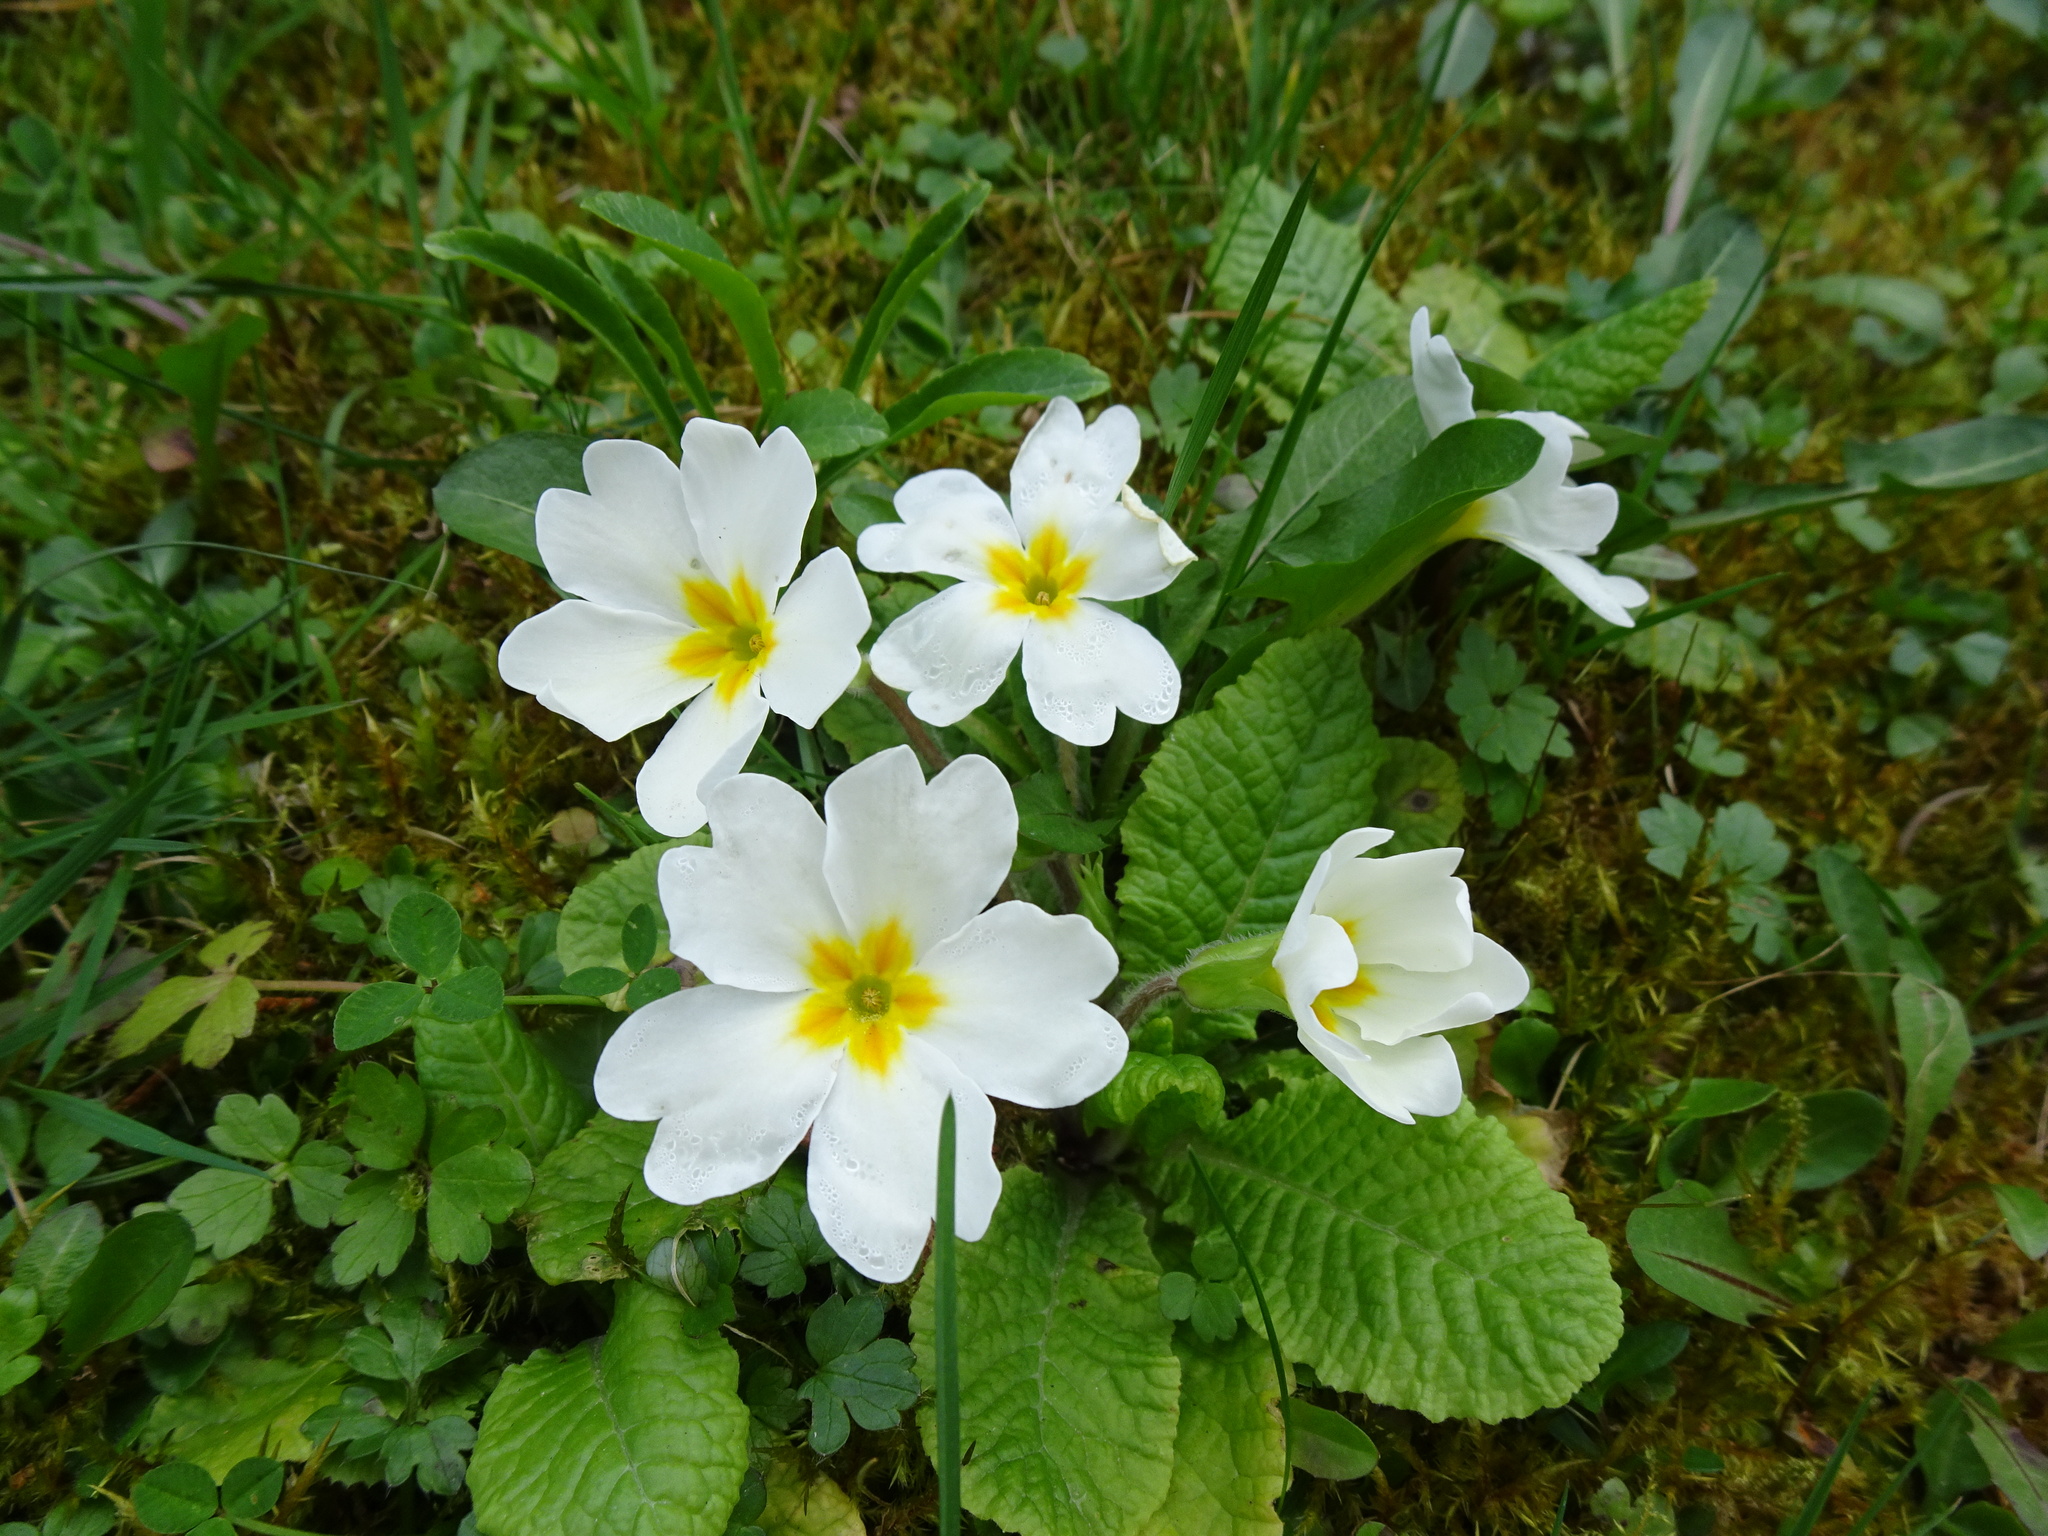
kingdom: Plantae
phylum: Tracheophyta
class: Magnoliopsida
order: Ericales
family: Primulaceae
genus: Primula
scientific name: Primula vulgaris
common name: Primrose
